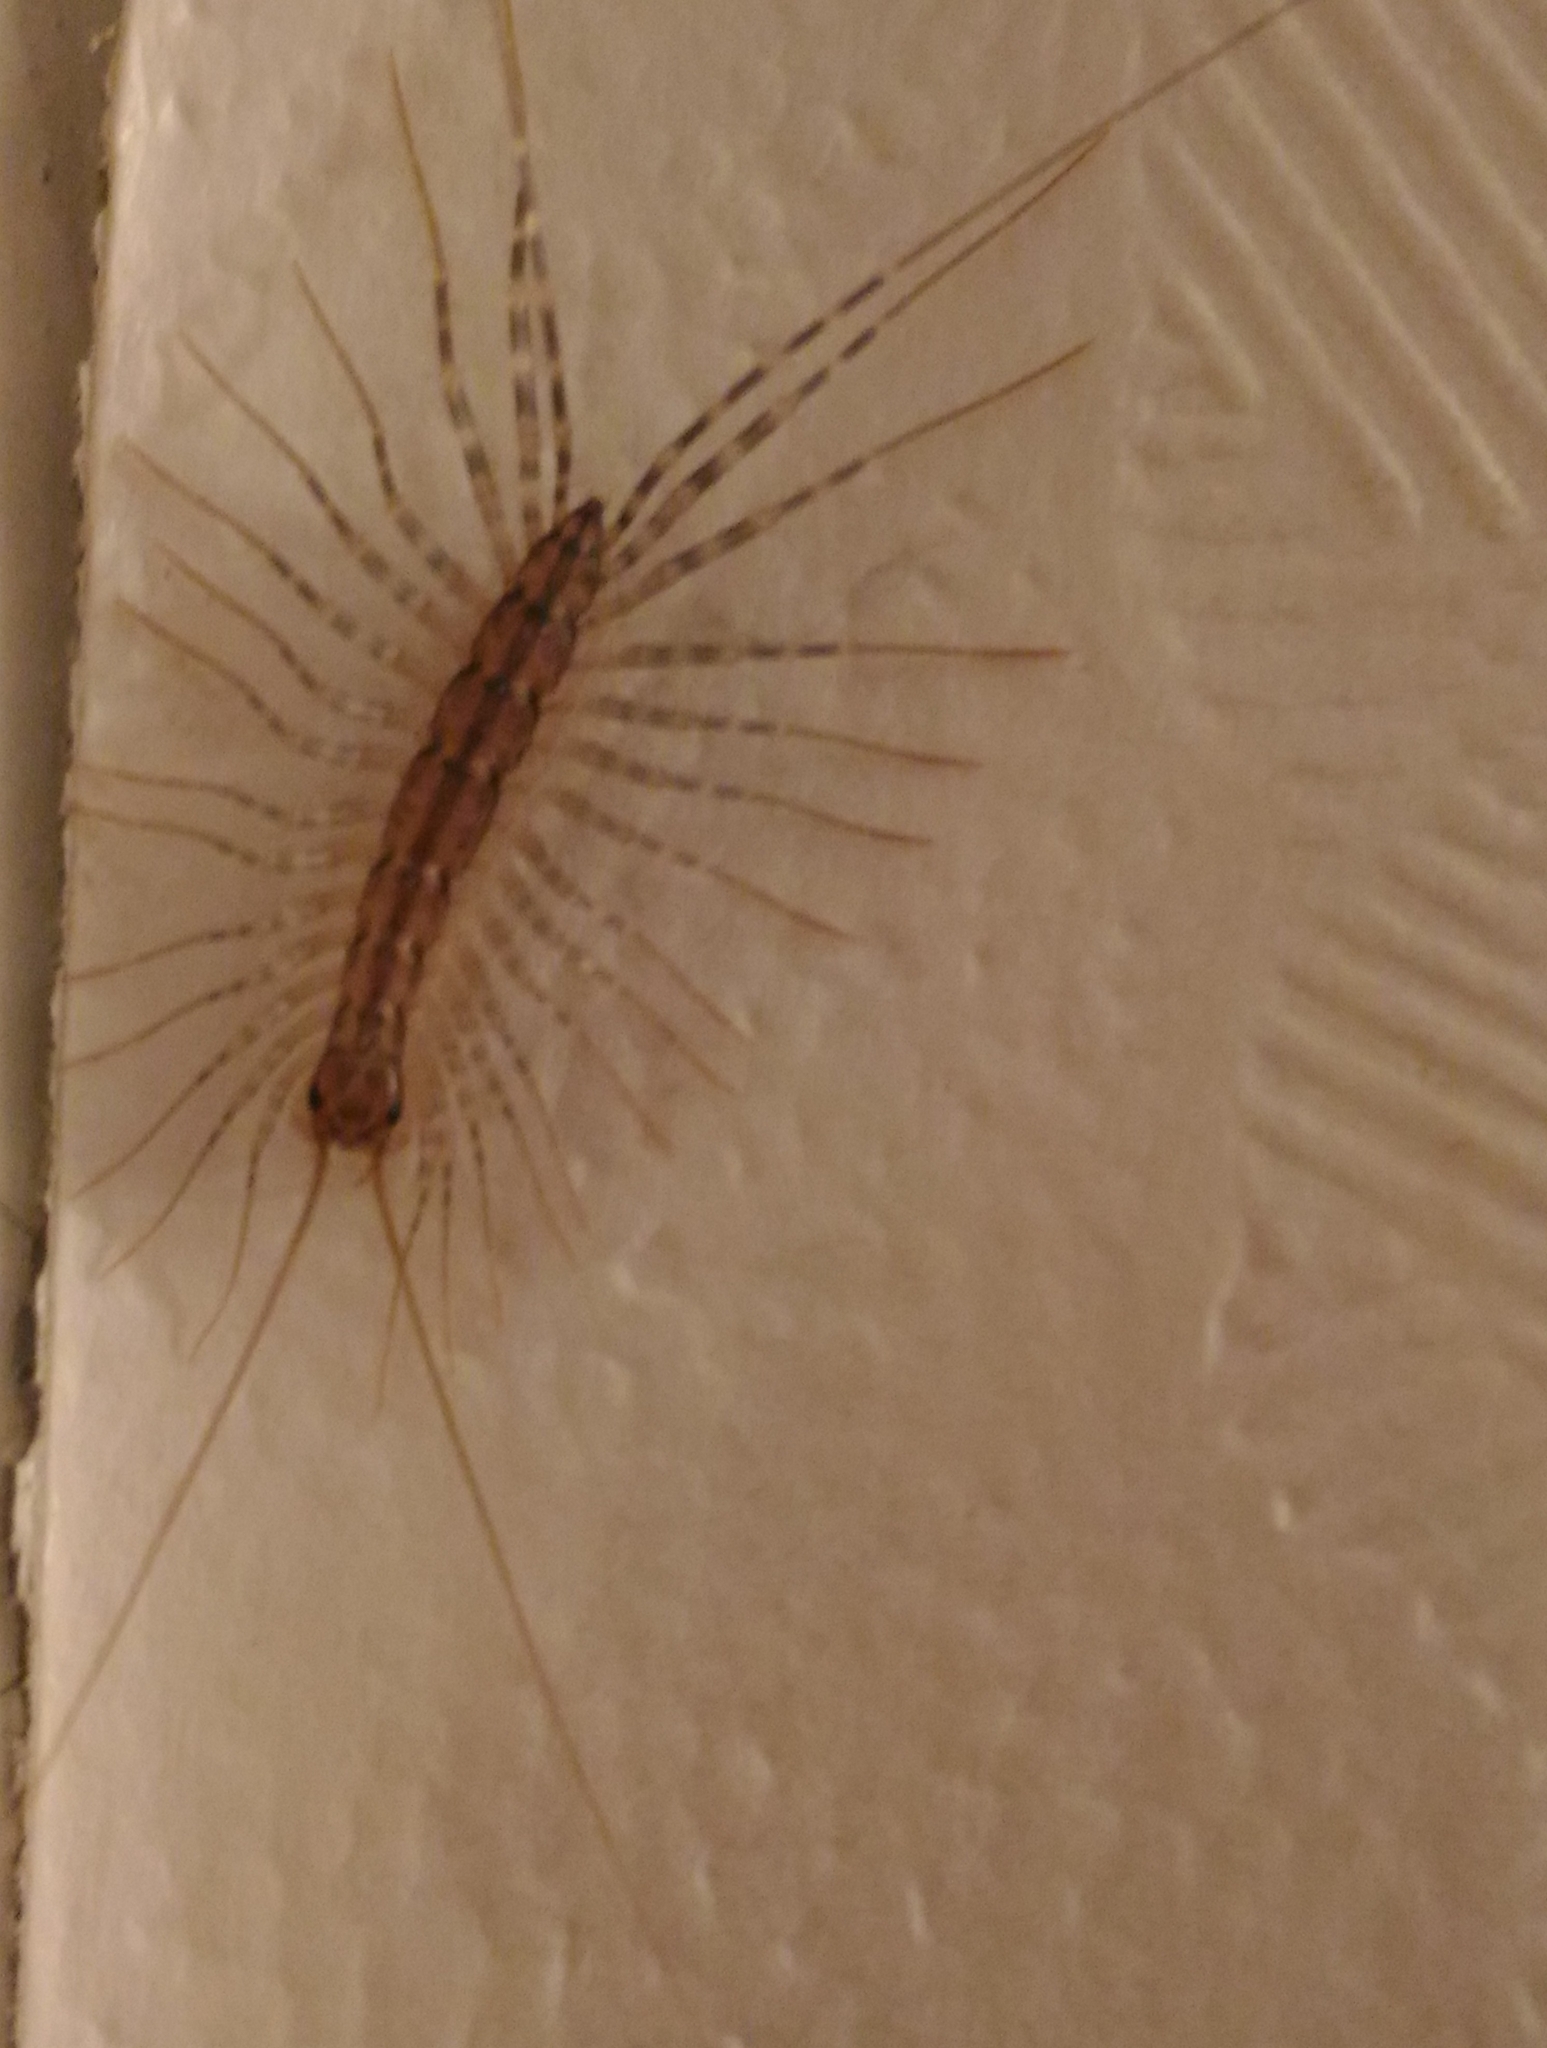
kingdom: Animalia
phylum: Arthropoda
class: Chilopoda
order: Scutigeromorpha
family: Scutigeridae
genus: Scutigera
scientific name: Scutigera coleoptrata
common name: House centipede
